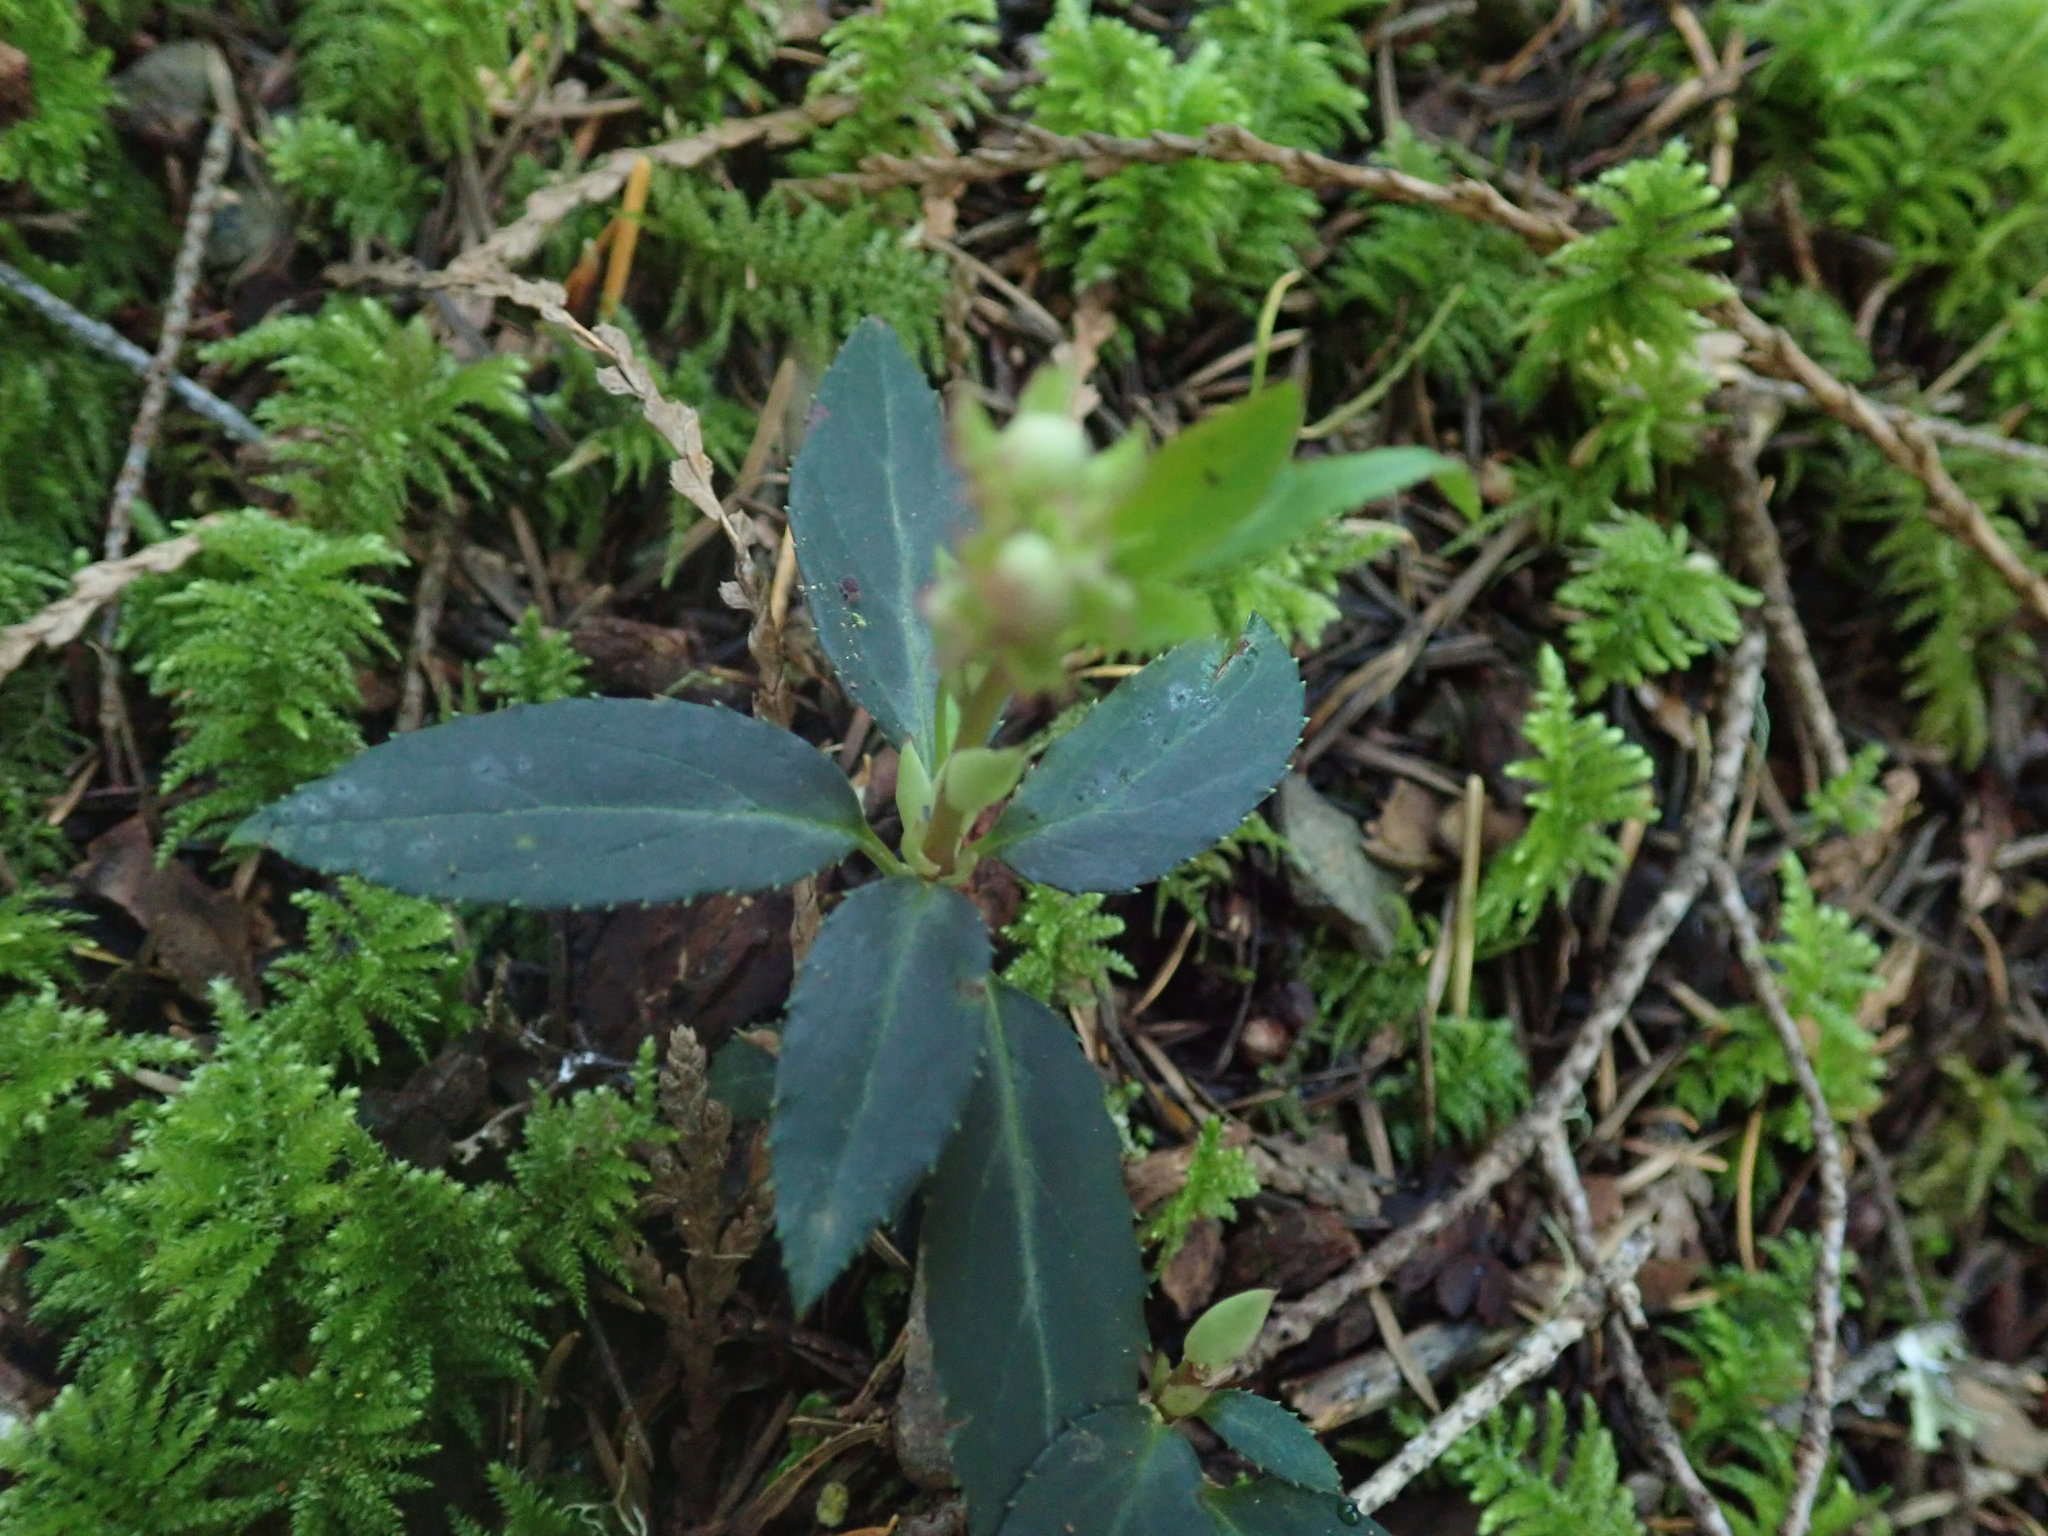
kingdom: Plantae
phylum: Tracheophyta
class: Magnoliopsida
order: Ericales
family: Ericaceae
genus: Chimaphila
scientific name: Chimaphila menziesii
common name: Menzies' pipsissewa
